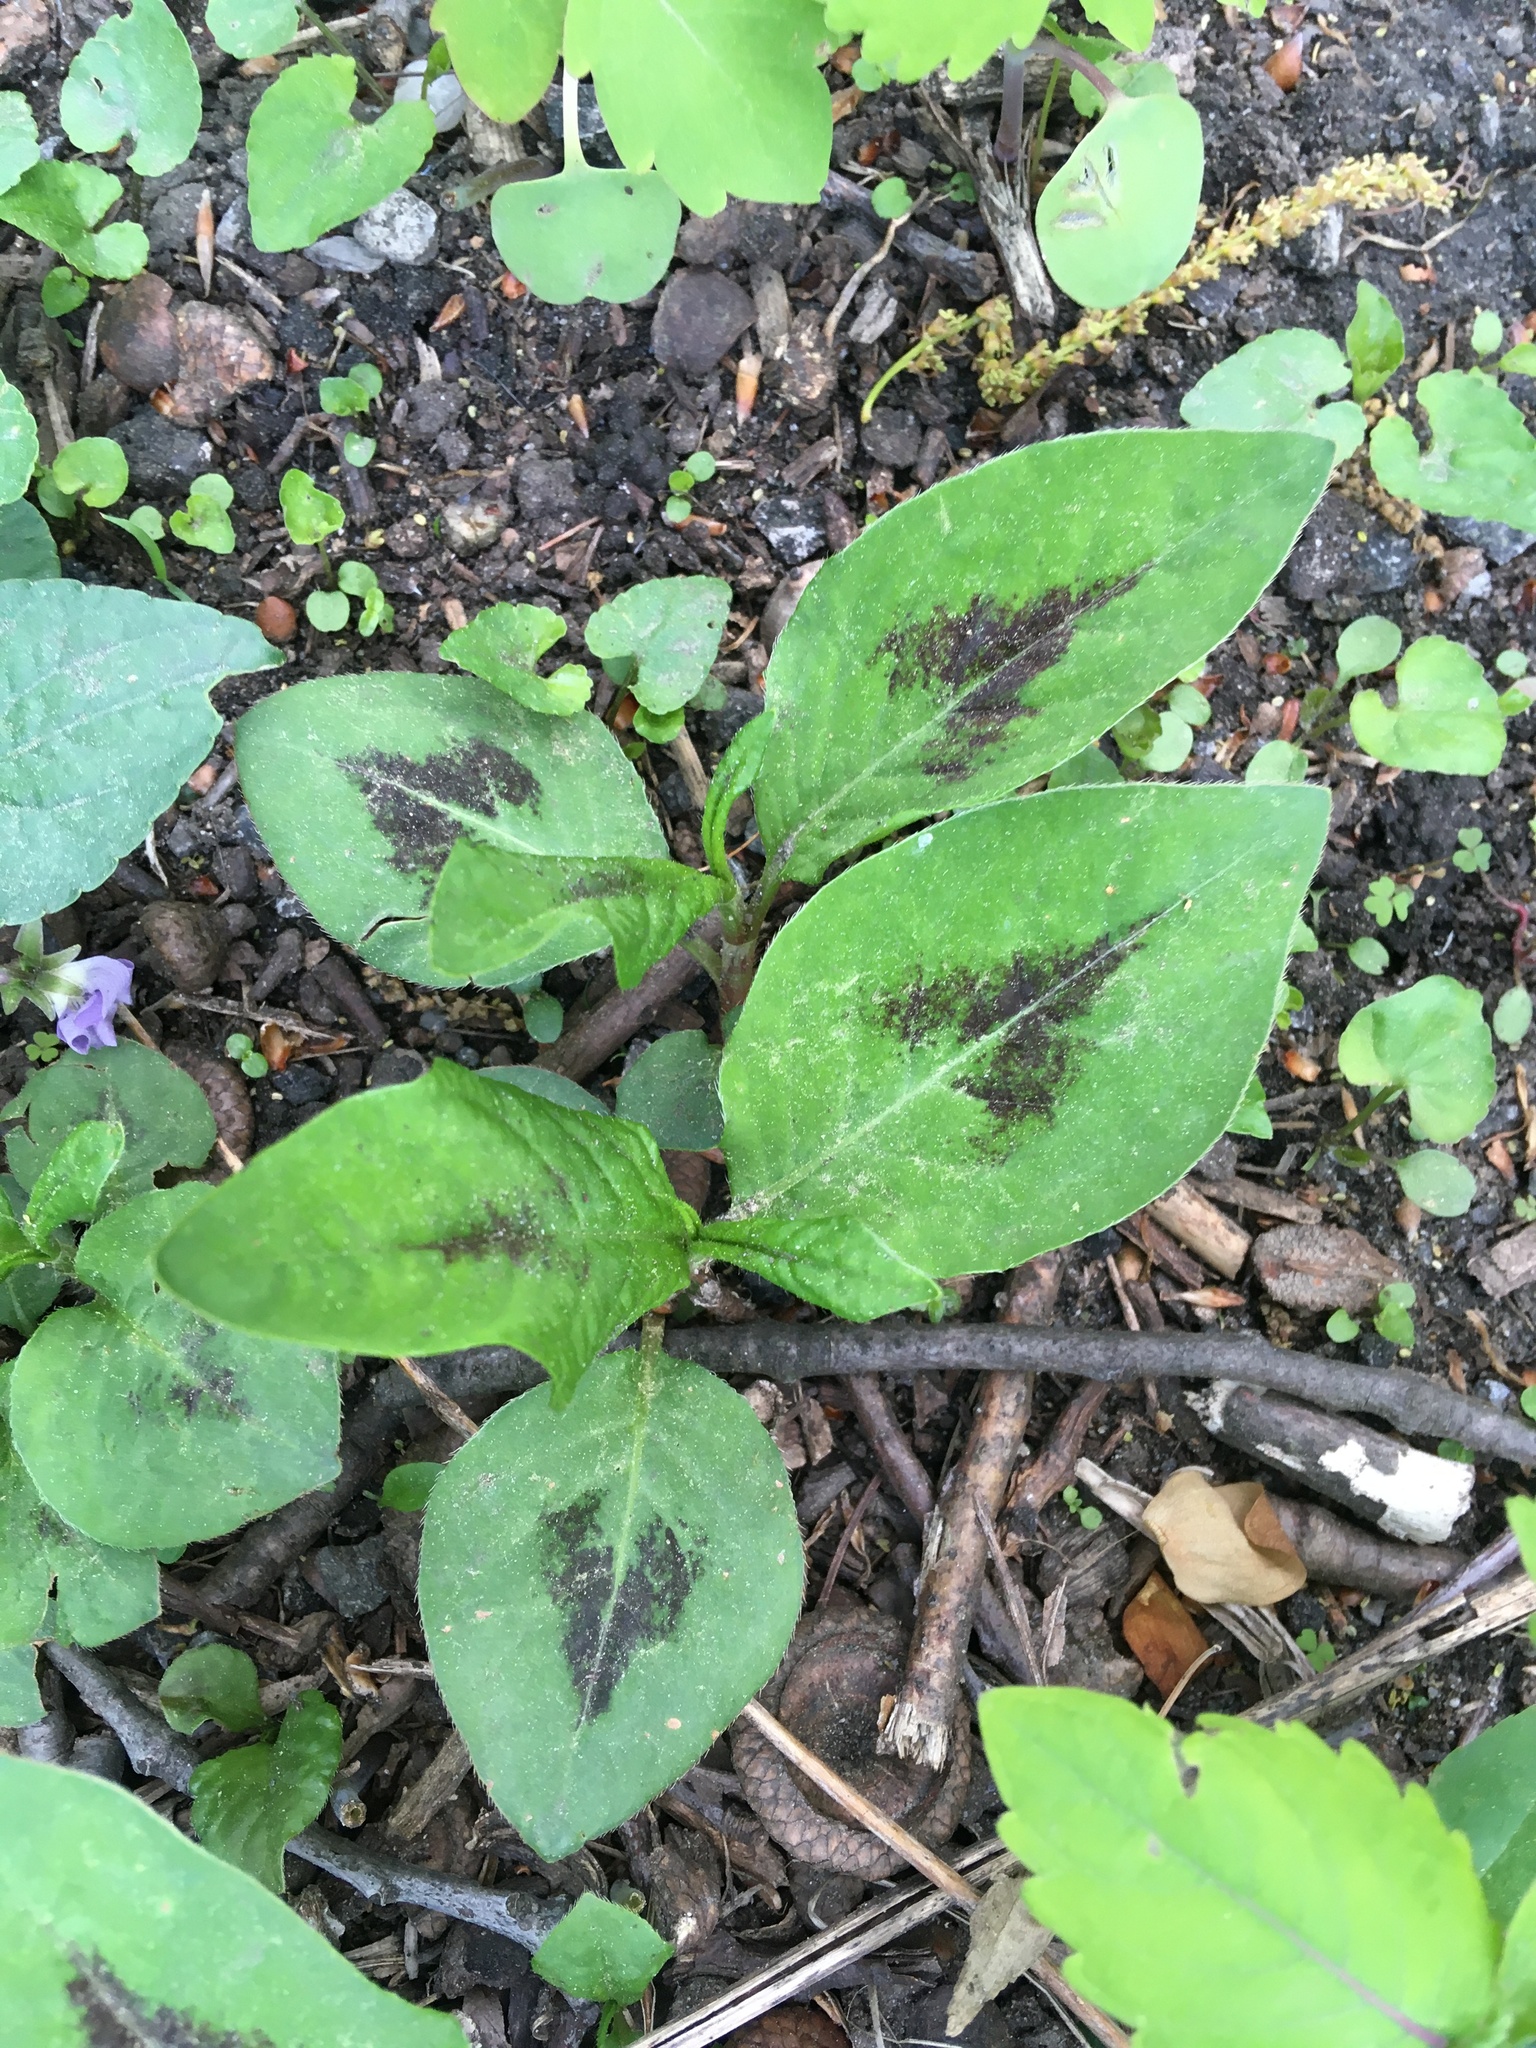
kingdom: Plantae
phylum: Tracheophyta
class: Magnoliopsida
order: Caryophyllales
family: Polygonaceae
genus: Persicaria
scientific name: Persicaria virginiana
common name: Jumpseed
